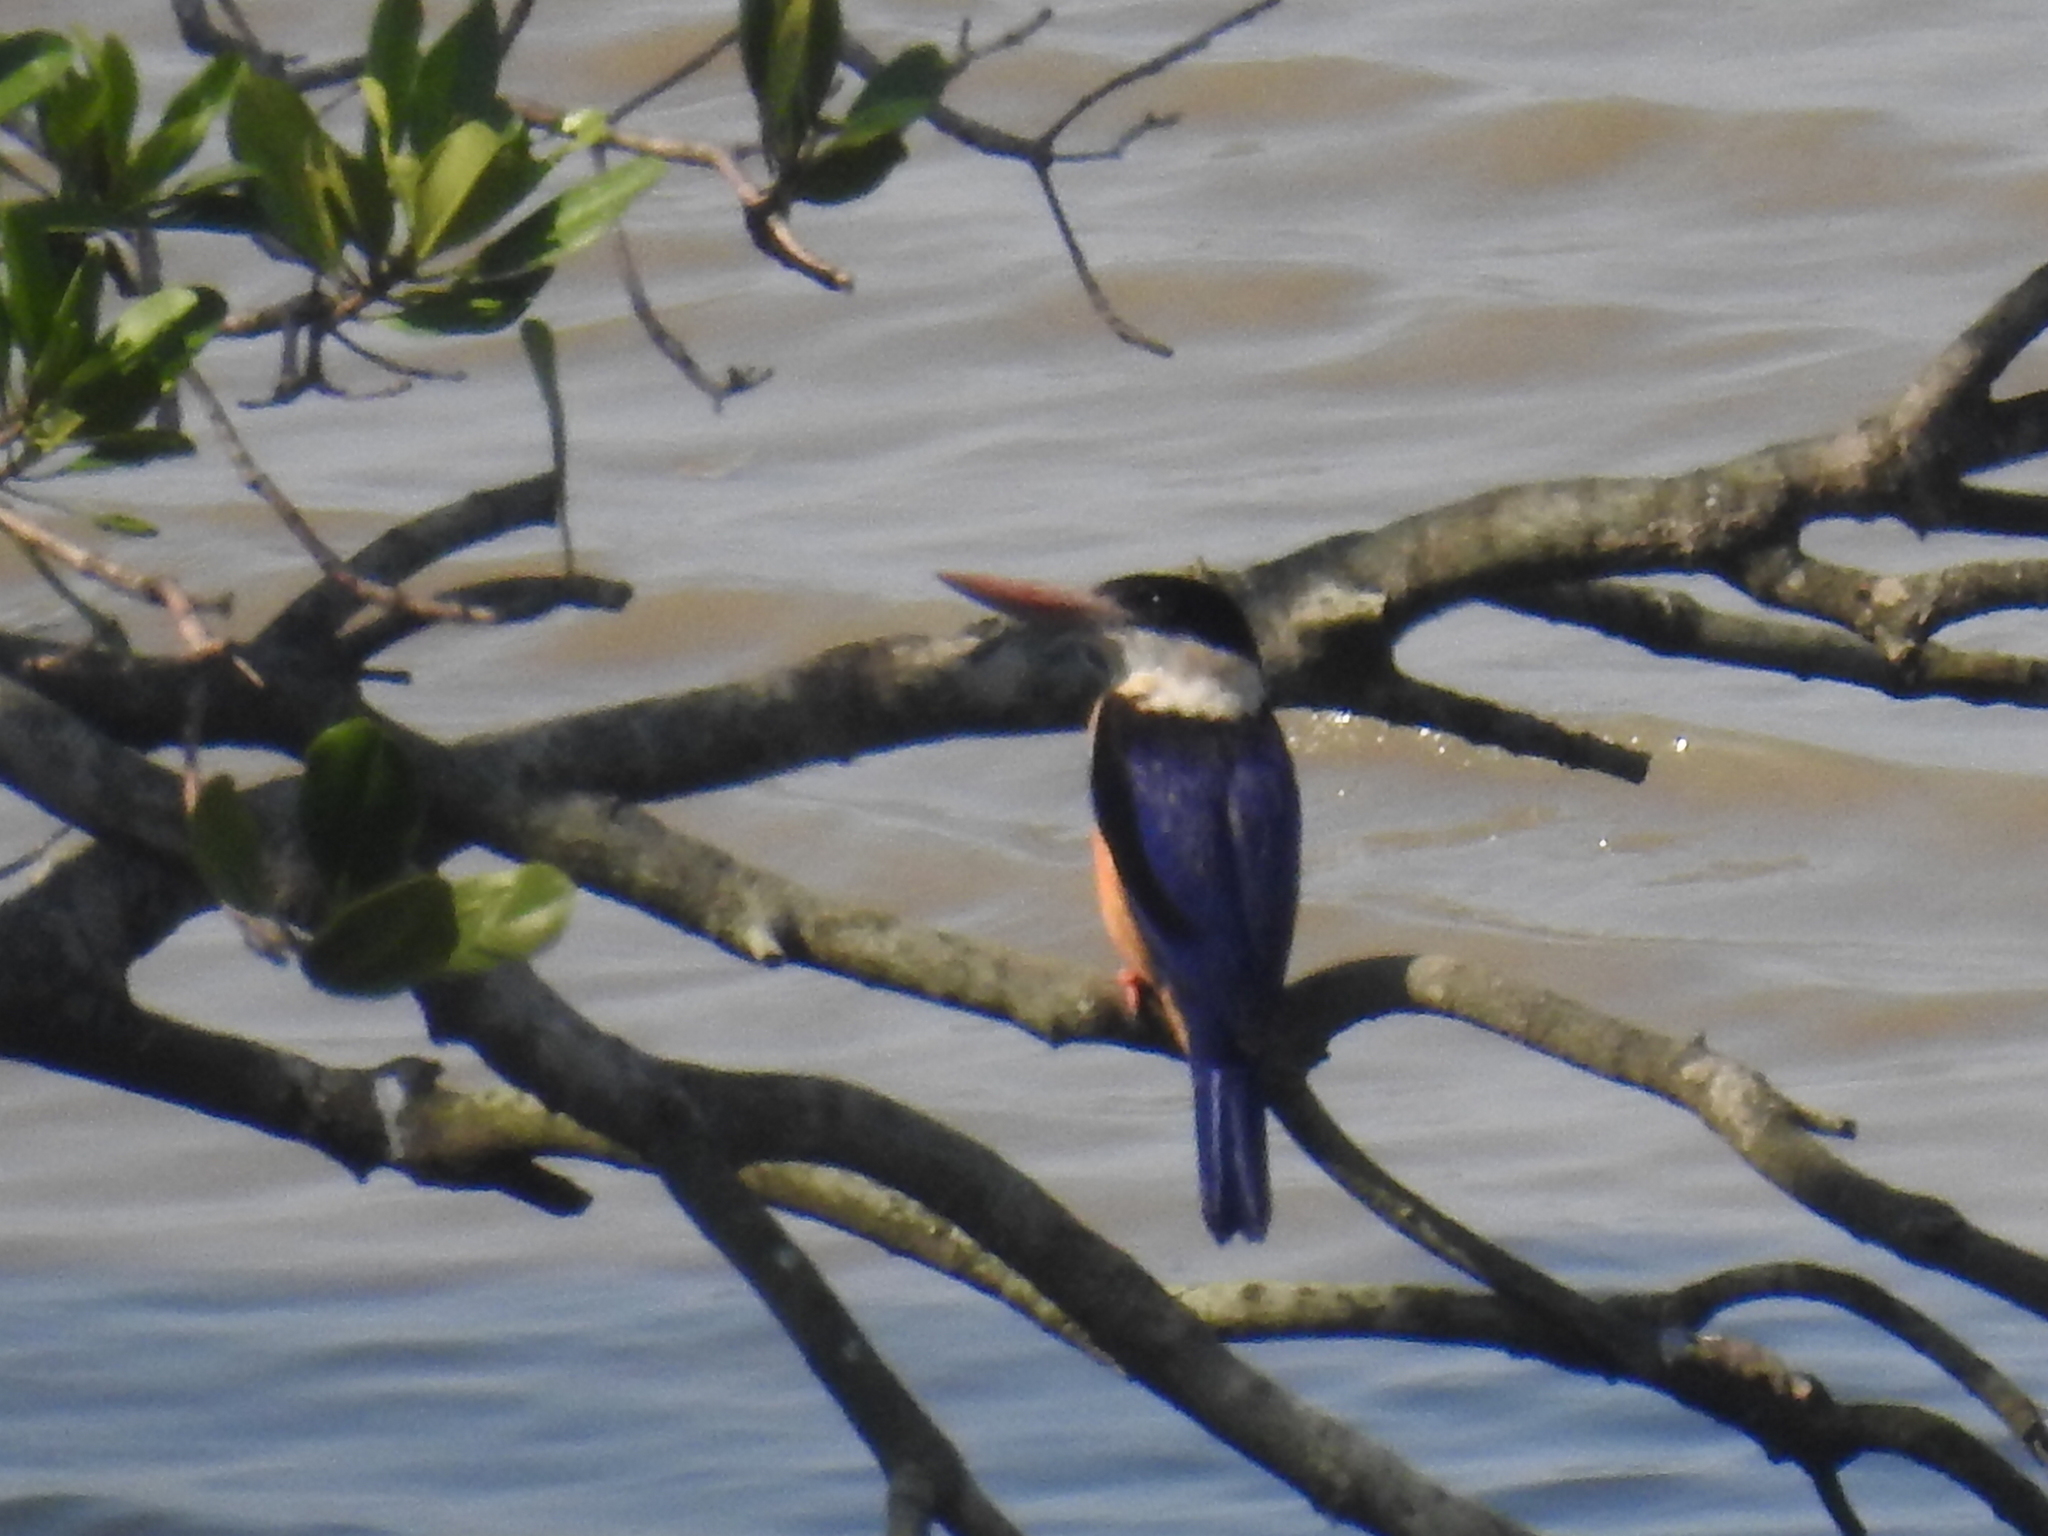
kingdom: Animalia
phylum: Chordata
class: Aves
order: Coraciiformes
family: Alcedinidae
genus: Halcyon
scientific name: Halcyon pileata
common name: Black-capped kingfisher
